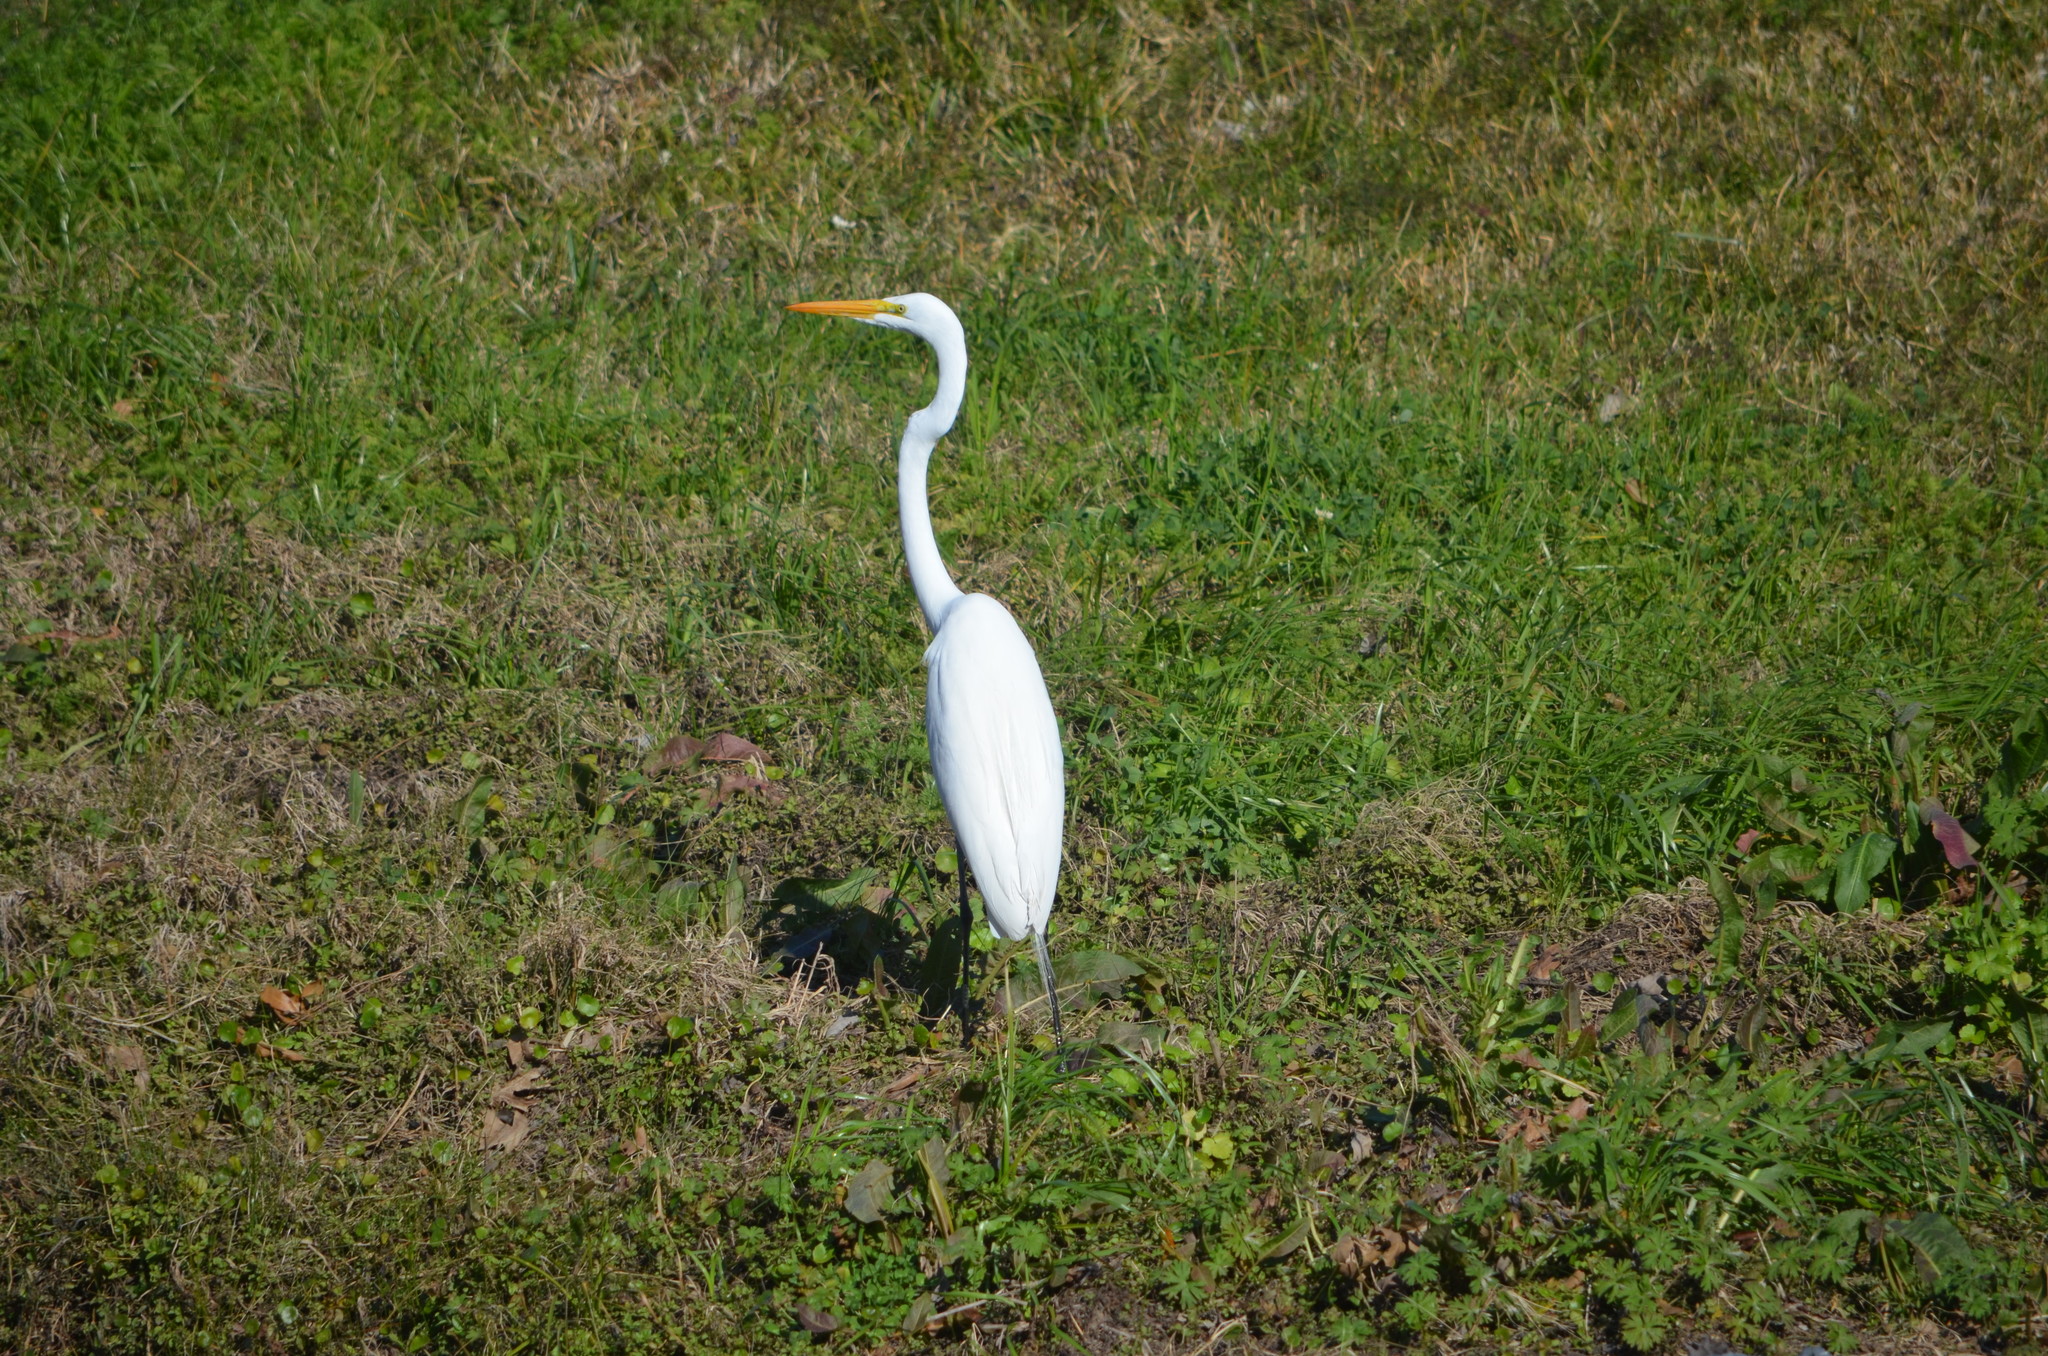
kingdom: Animalia
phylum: Chordata
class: Aves
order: Pelecaniformes
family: Ardeidae
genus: Ardea
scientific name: Ardea alba
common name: Great egret
